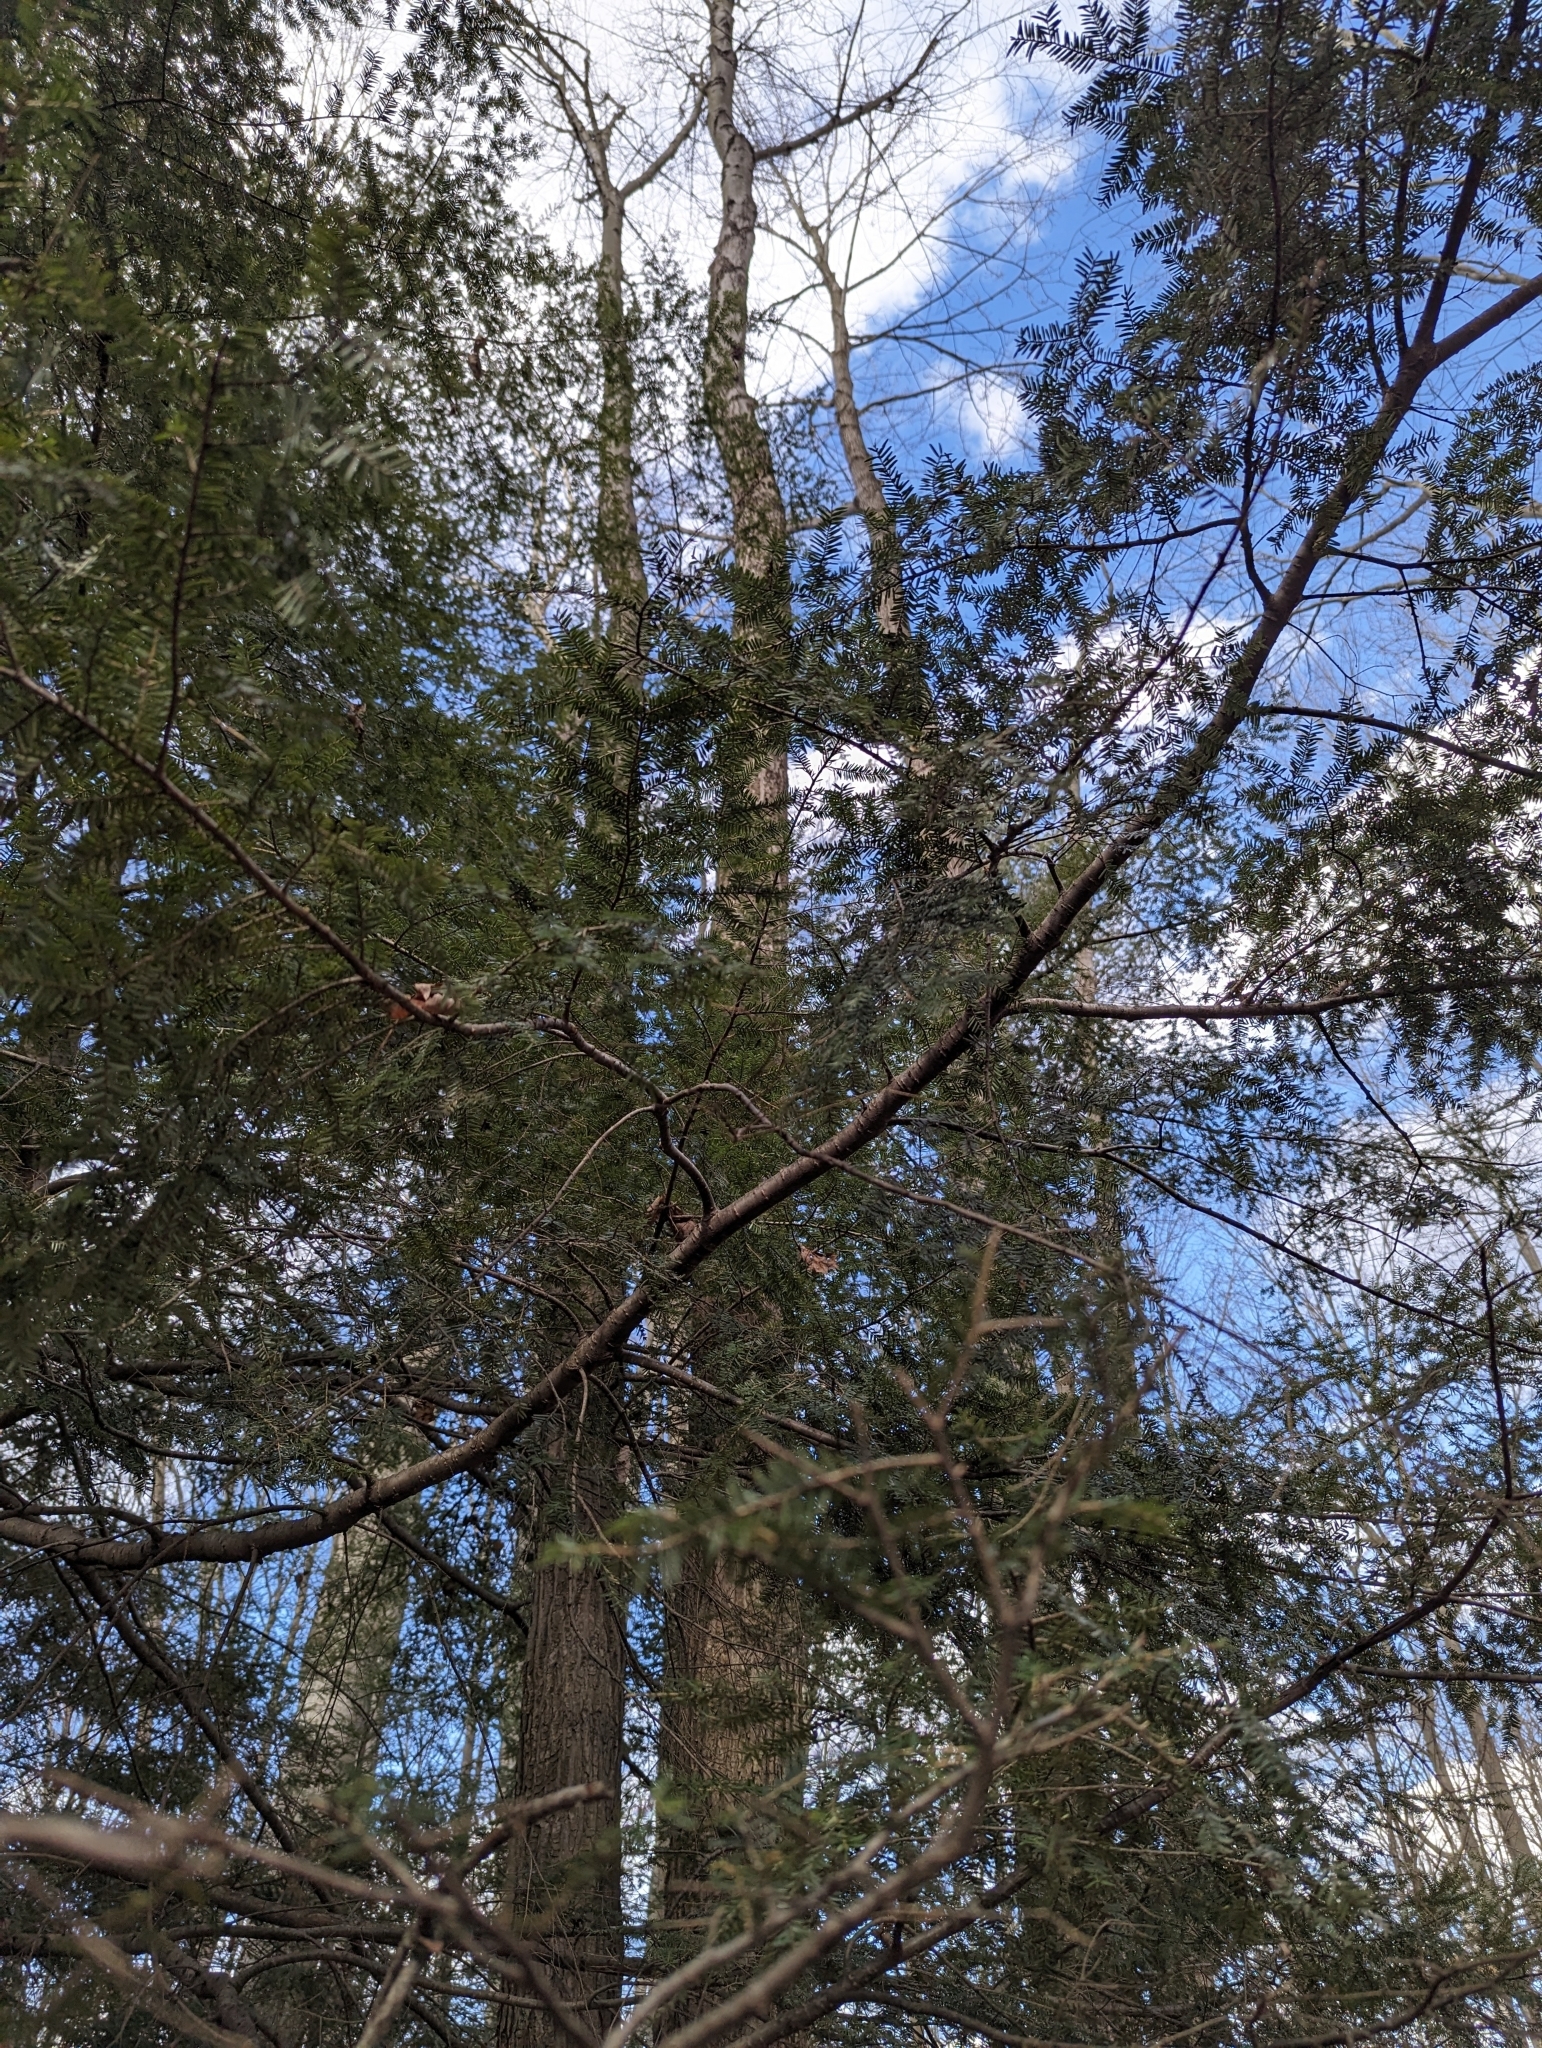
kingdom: Plantae
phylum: Tracheophyta
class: Pinopsida
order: Pinales
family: Pinaceae
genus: Tsuga
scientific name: Tsuga canadensis
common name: Eastern hemlock
